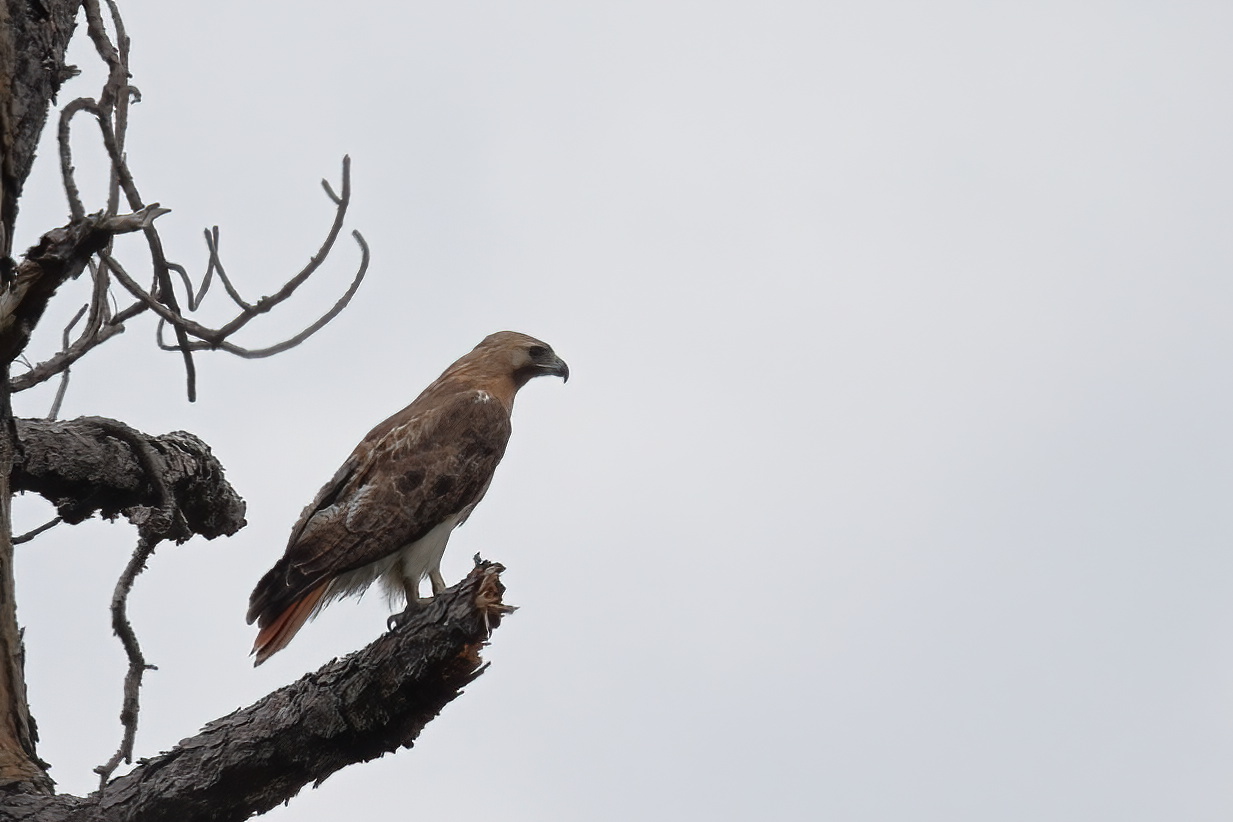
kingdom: Animalia
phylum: Chordata
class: Aves
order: Accipitriformes
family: Accipitridae
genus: Buteo
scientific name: Buteo jamaicensis
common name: Red-tailed hawk
